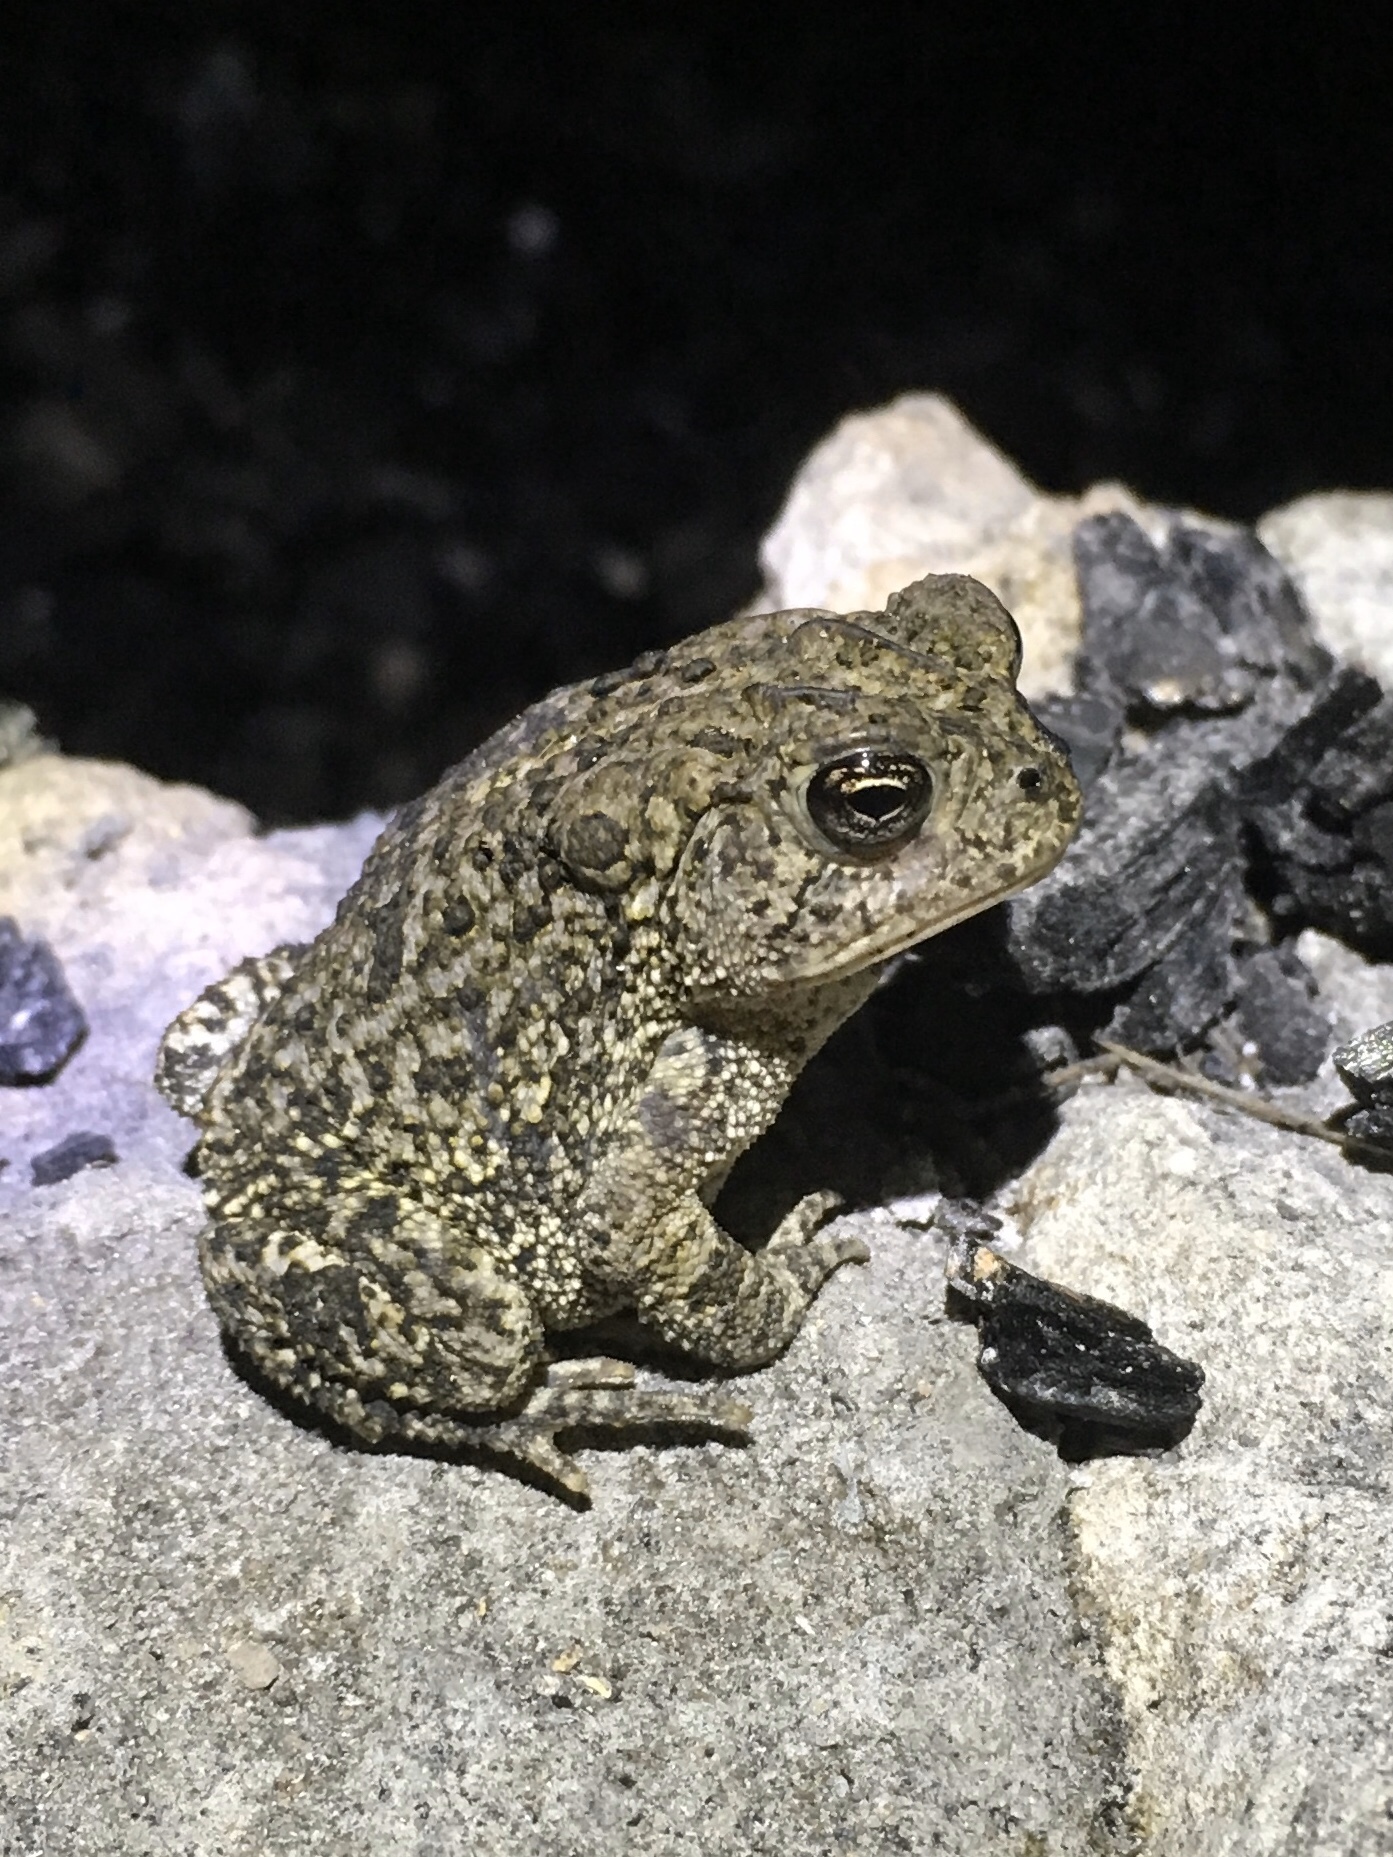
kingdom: Animalia
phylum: Chordata
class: Amphibia
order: Anura
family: Bufonidae
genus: Anaxyrus
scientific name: Anaxyrus terrestris
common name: Southern toad
